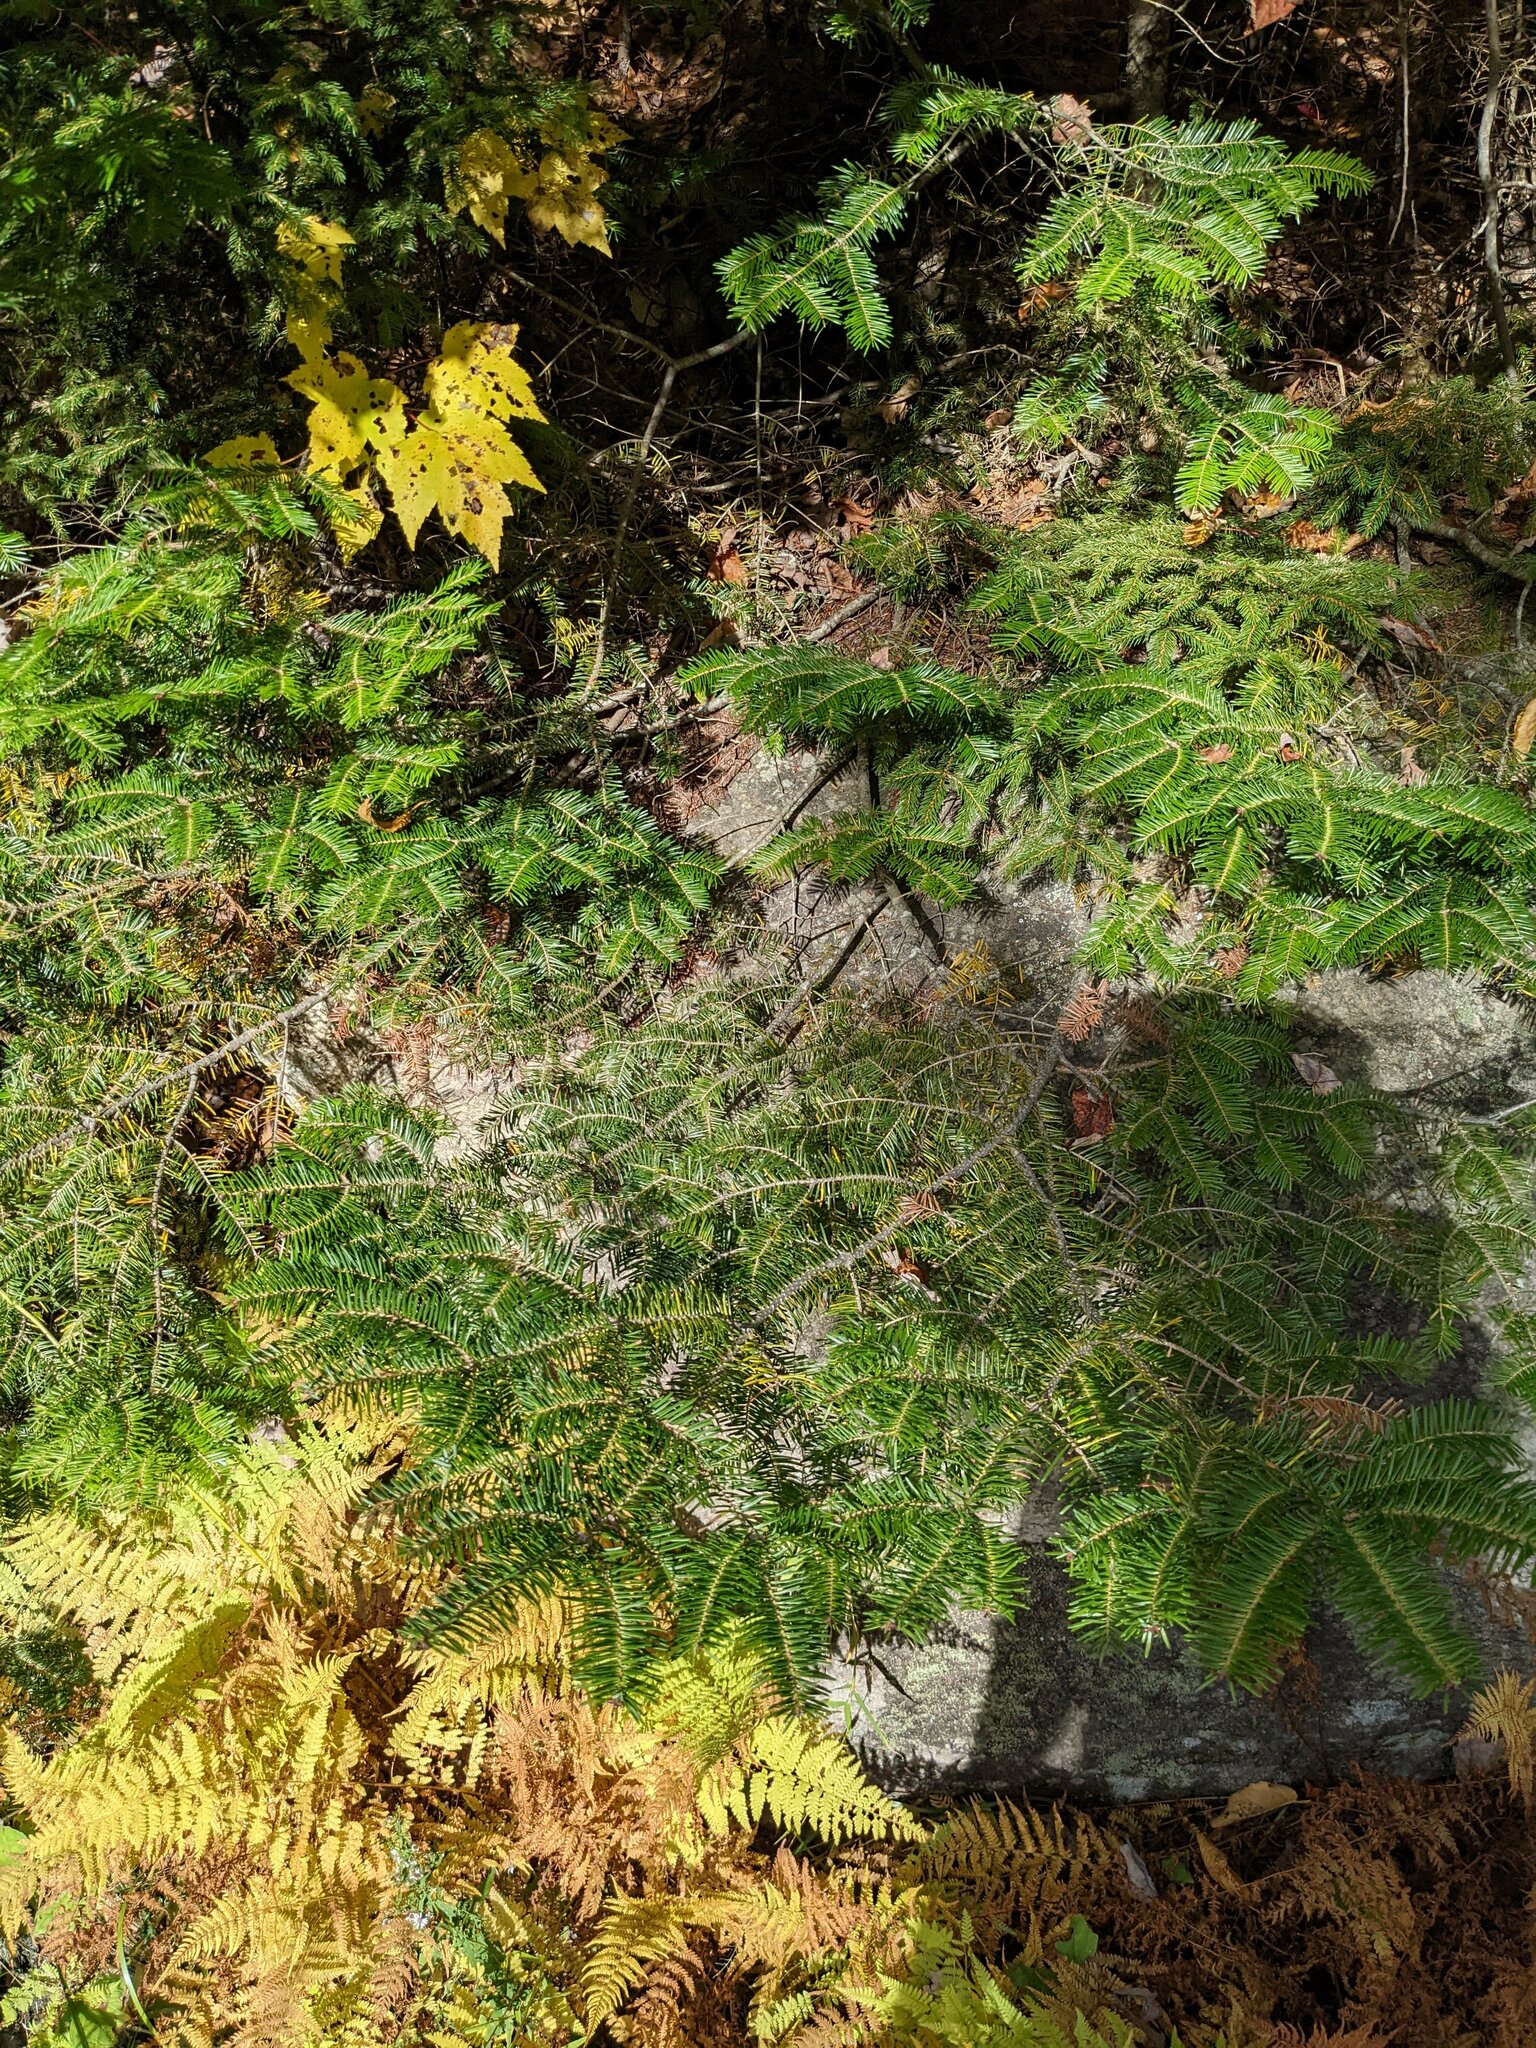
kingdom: Plantae
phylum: Tracheophyta
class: Pinopsida
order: Pinales
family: Pinaceae
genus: Abies
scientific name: Abies balsamea
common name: Balsam fir
